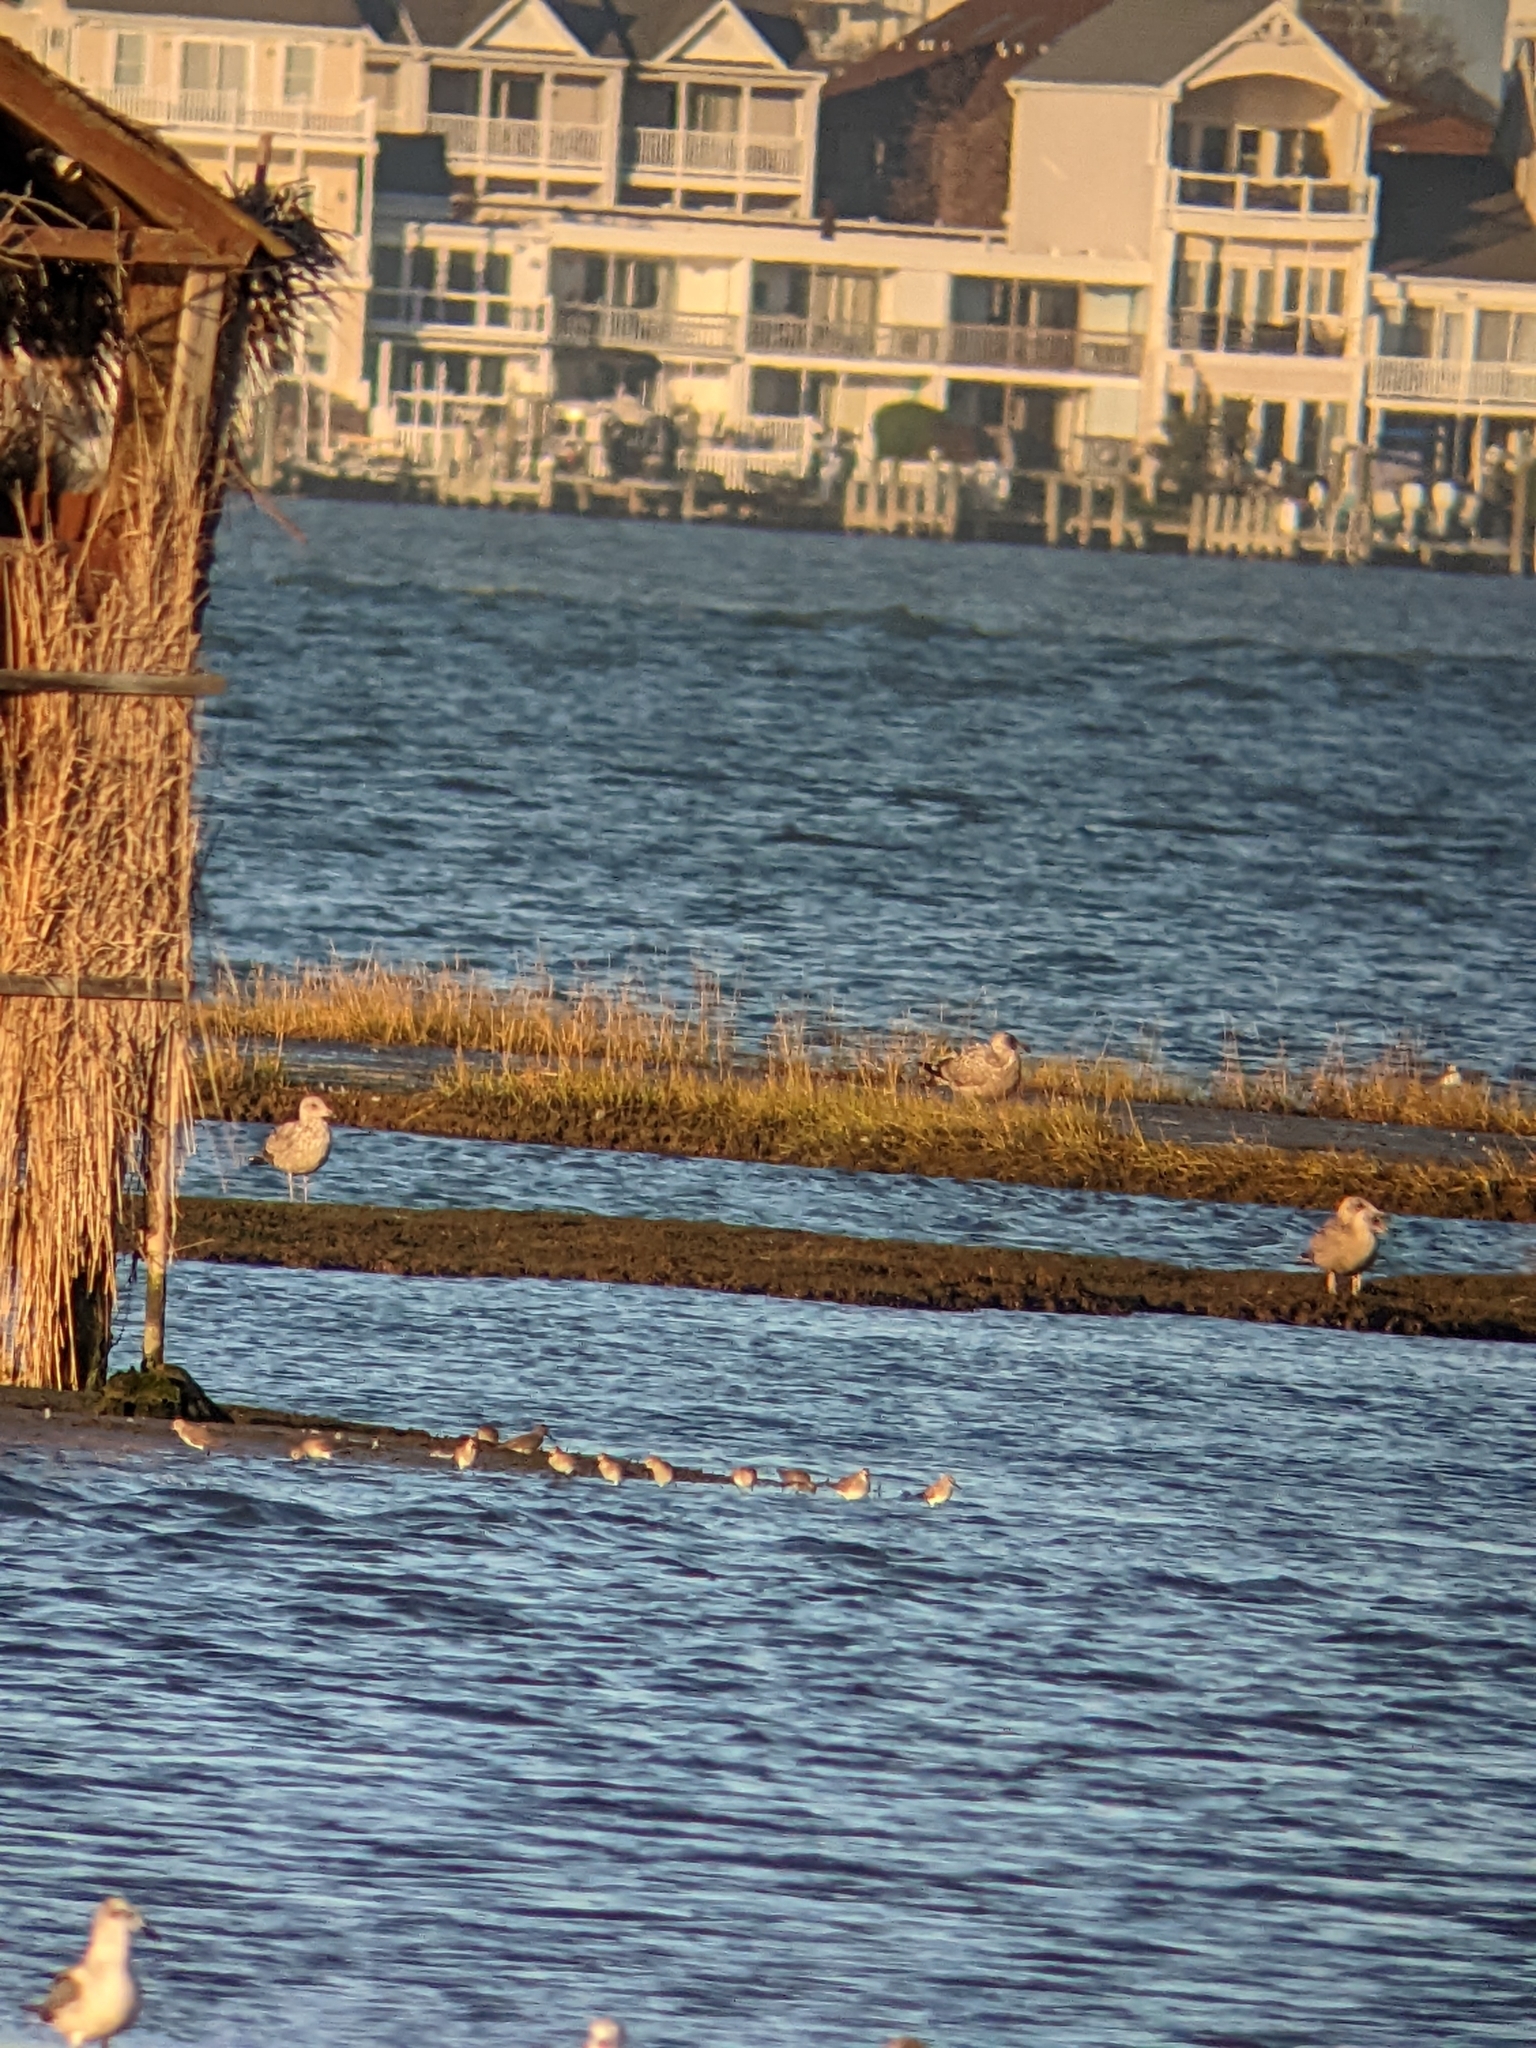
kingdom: Animalia
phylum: Chordata
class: Aves
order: Charadriiformes
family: Scolopacidae
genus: Calidris
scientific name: Calidris alpina
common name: Dunlin
